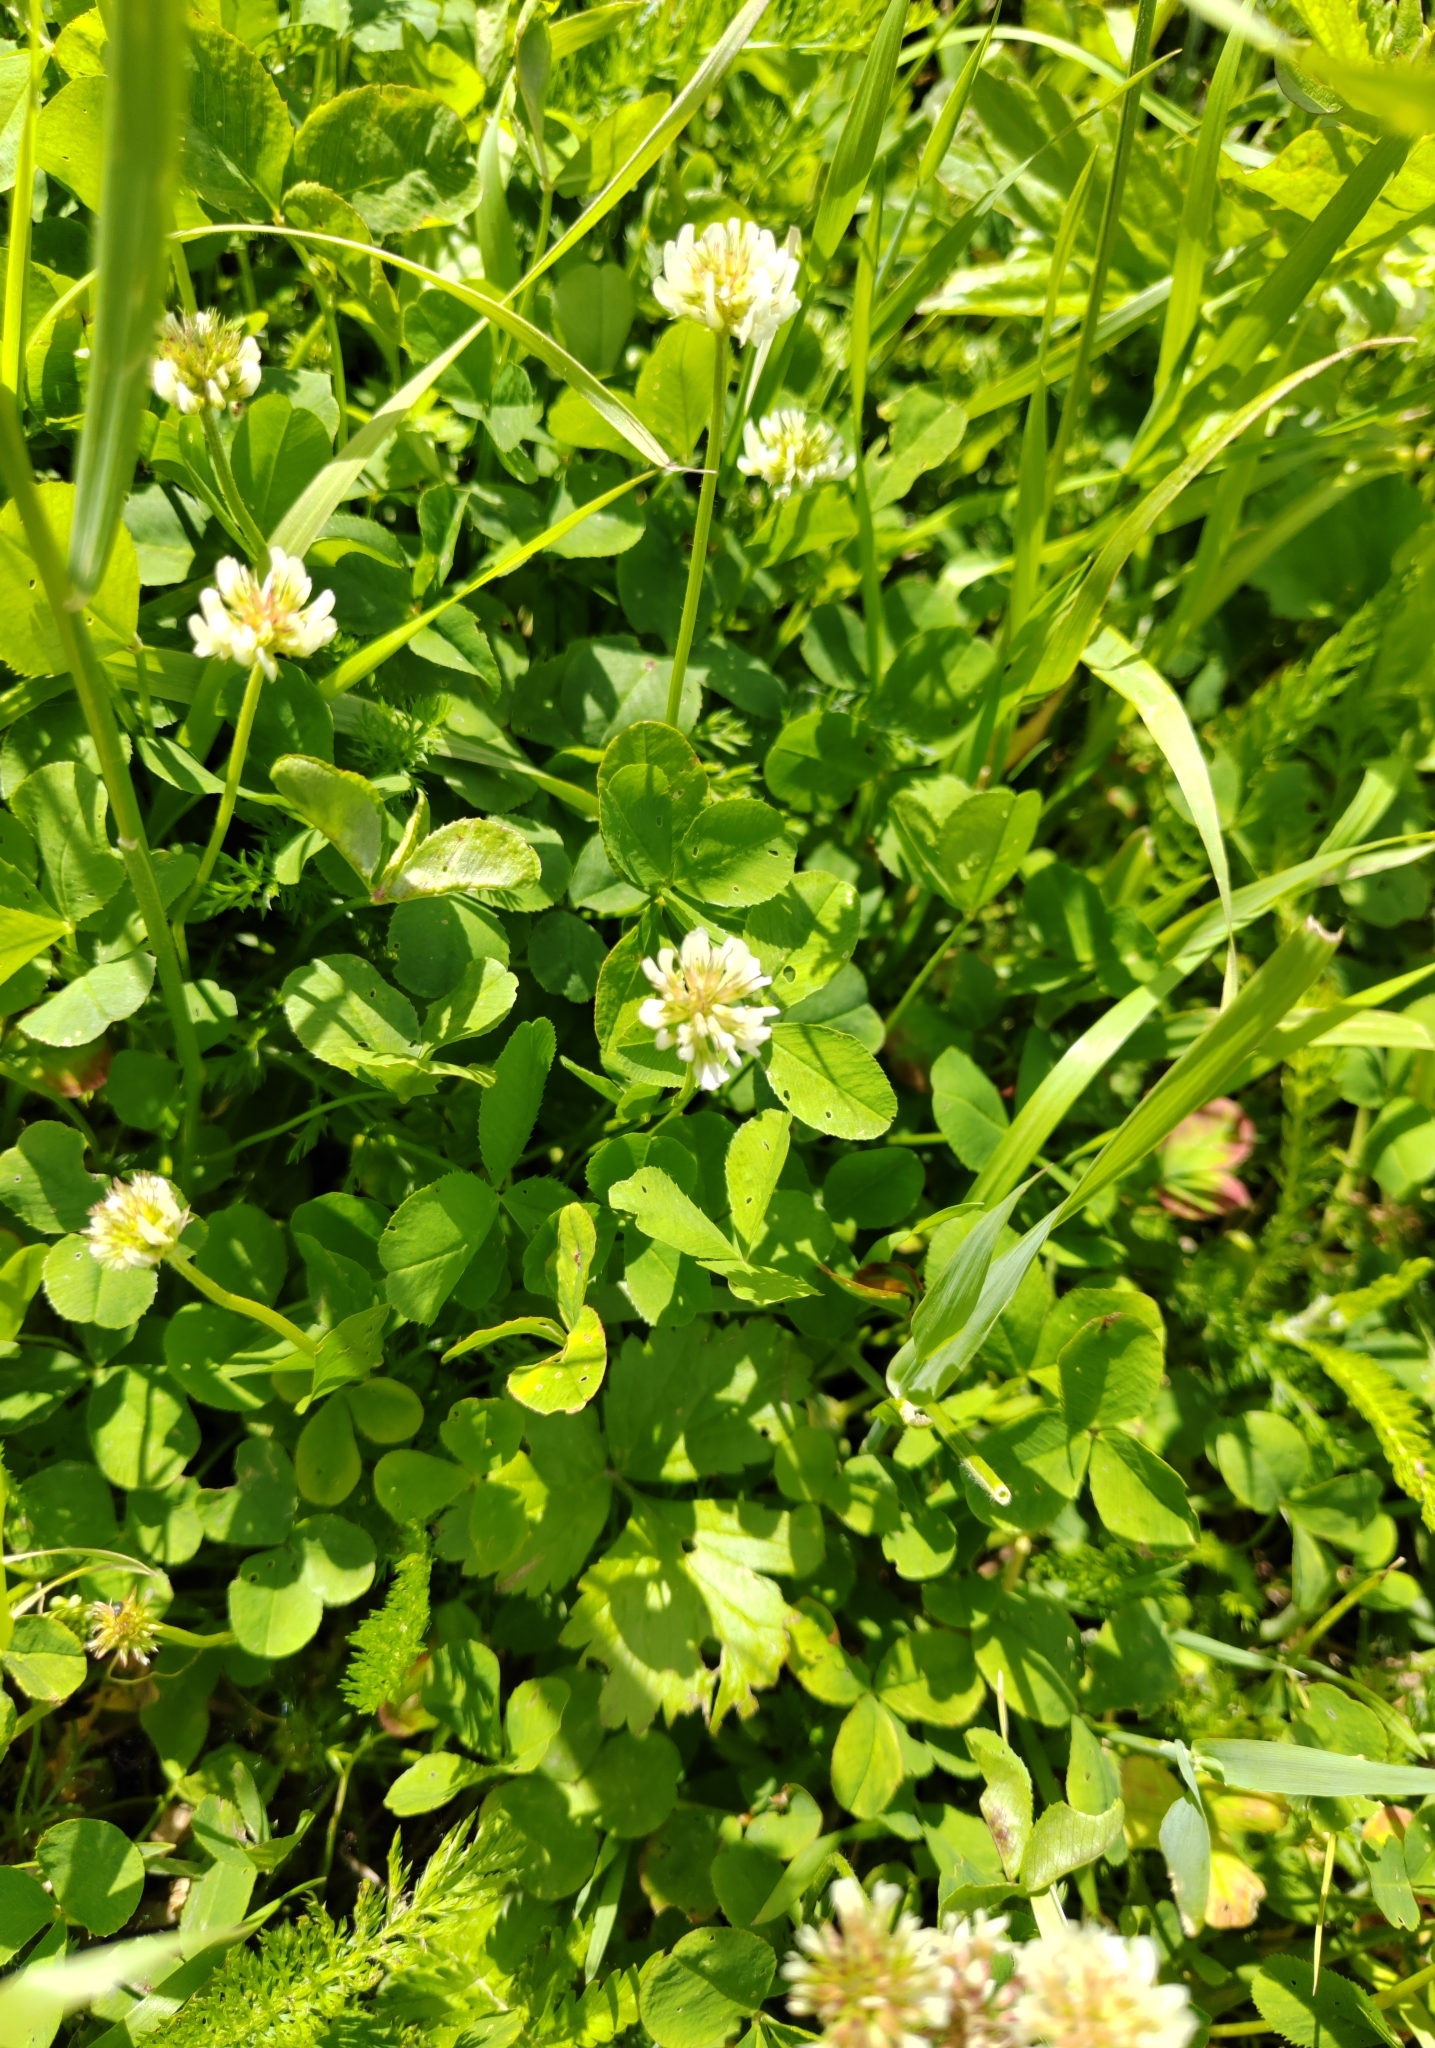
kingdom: Plantae
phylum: Tracheophyta
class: Magnoliopsida
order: Fabales
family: Fabaceae
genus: Trifolium
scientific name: Trifolium repens
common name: White clover
